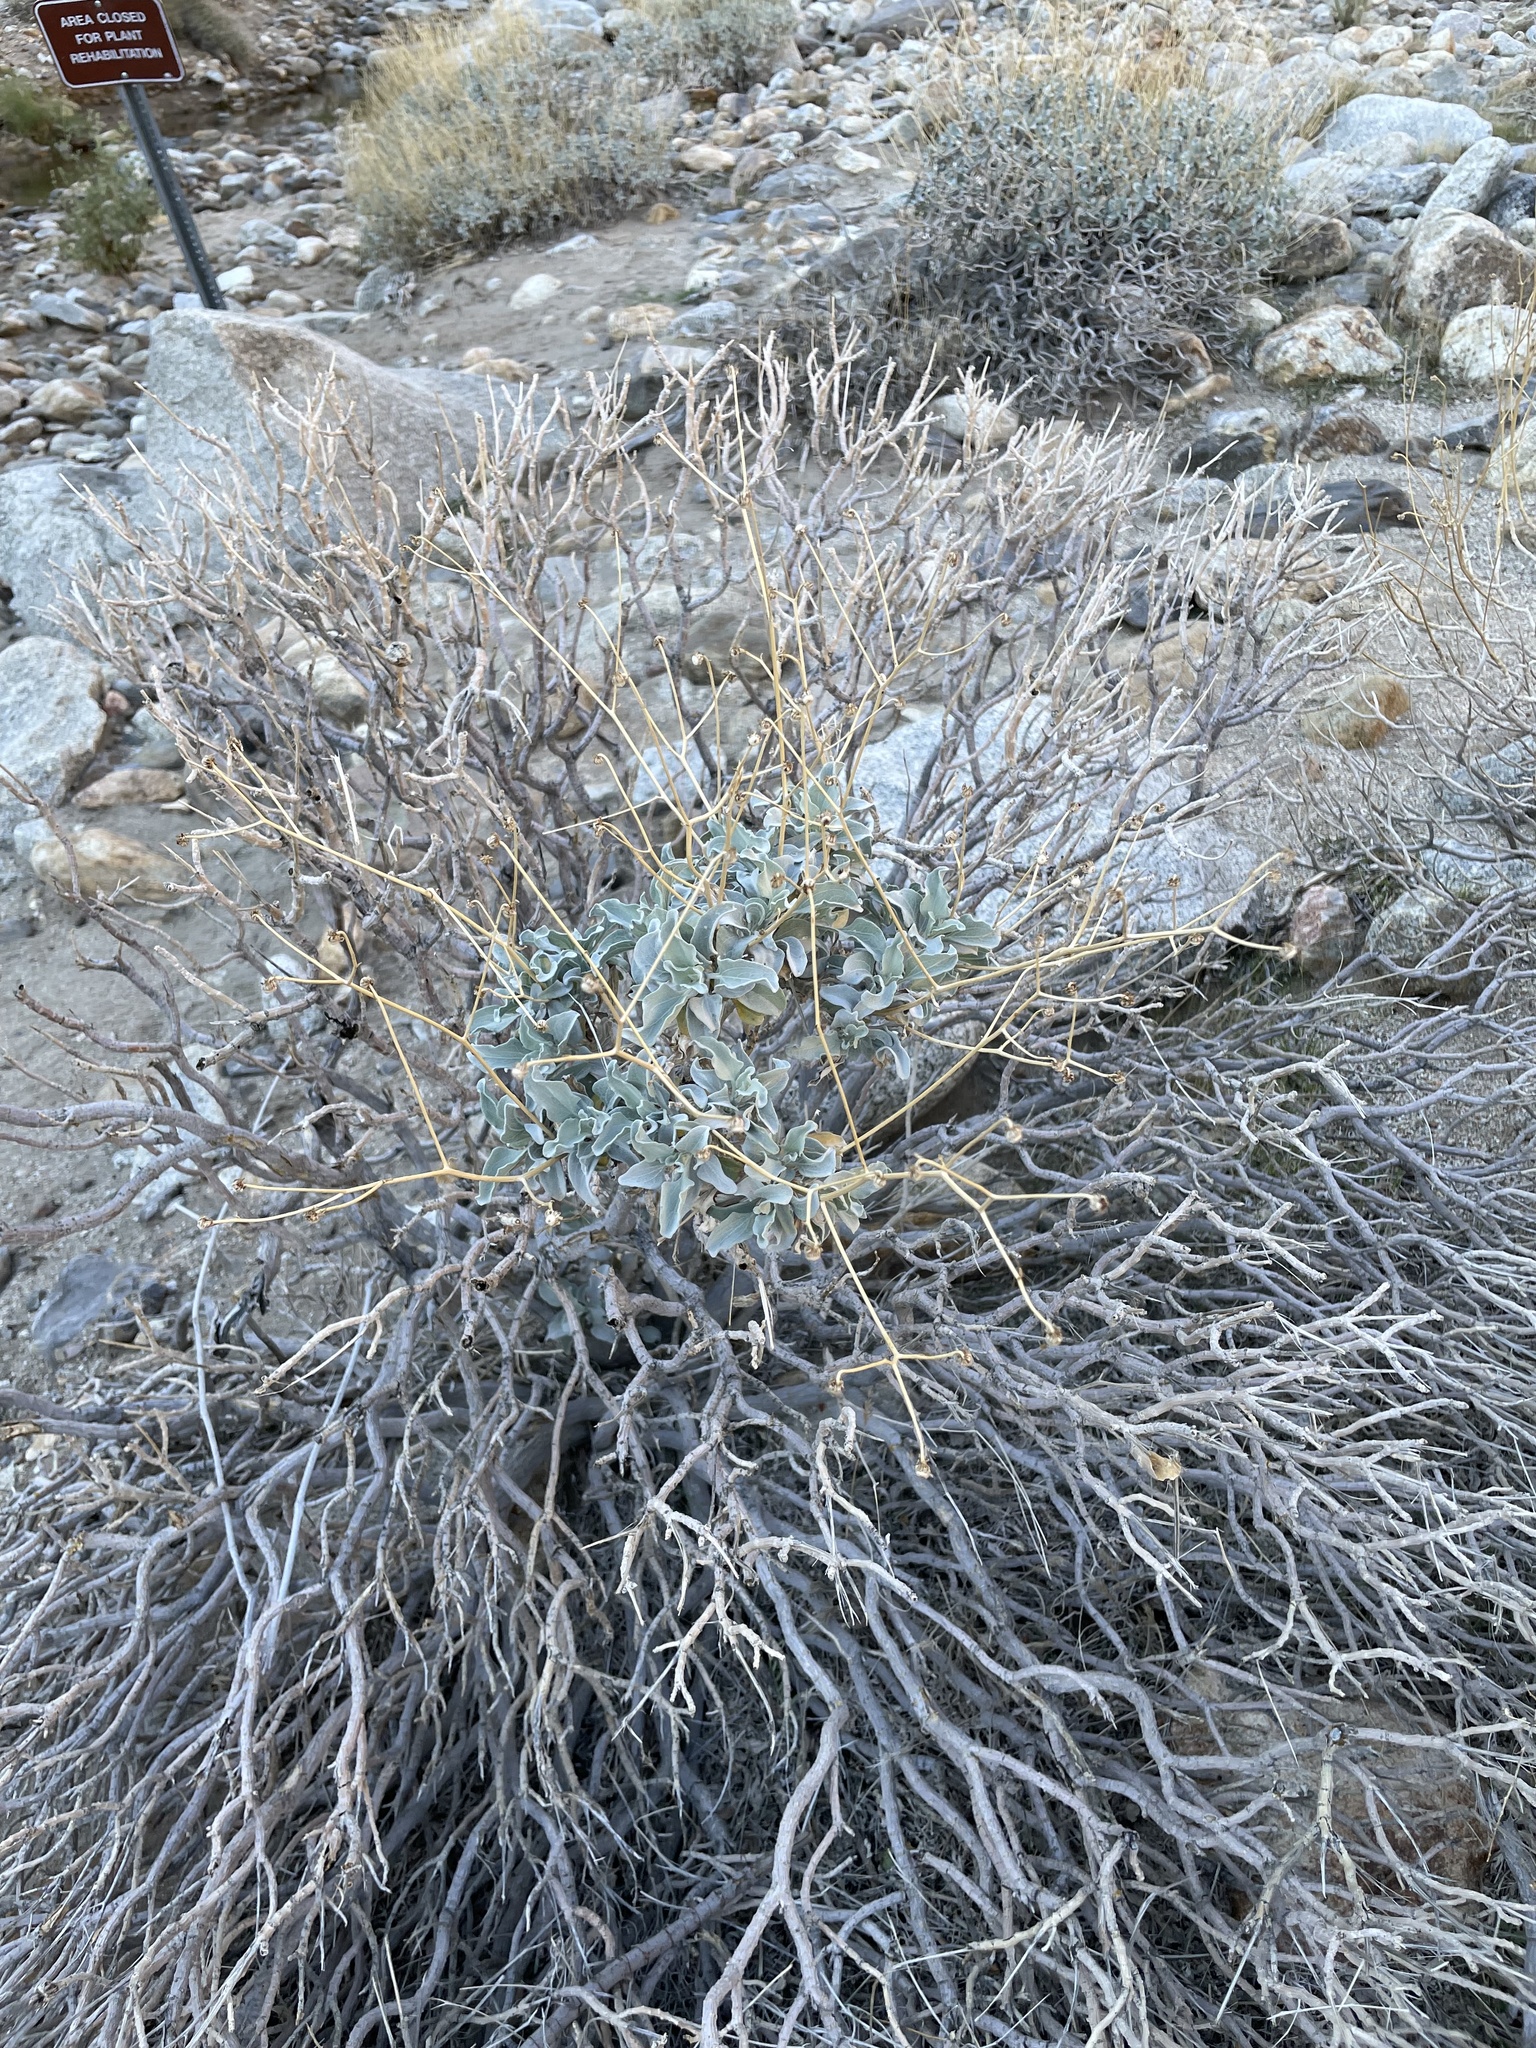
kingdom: Plantae
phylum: Tracheophyta
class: Magnoliopsida
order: Asterales
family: Asteraceae
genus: Encelia
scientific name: Encelia farinosa
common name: Brittlebush
